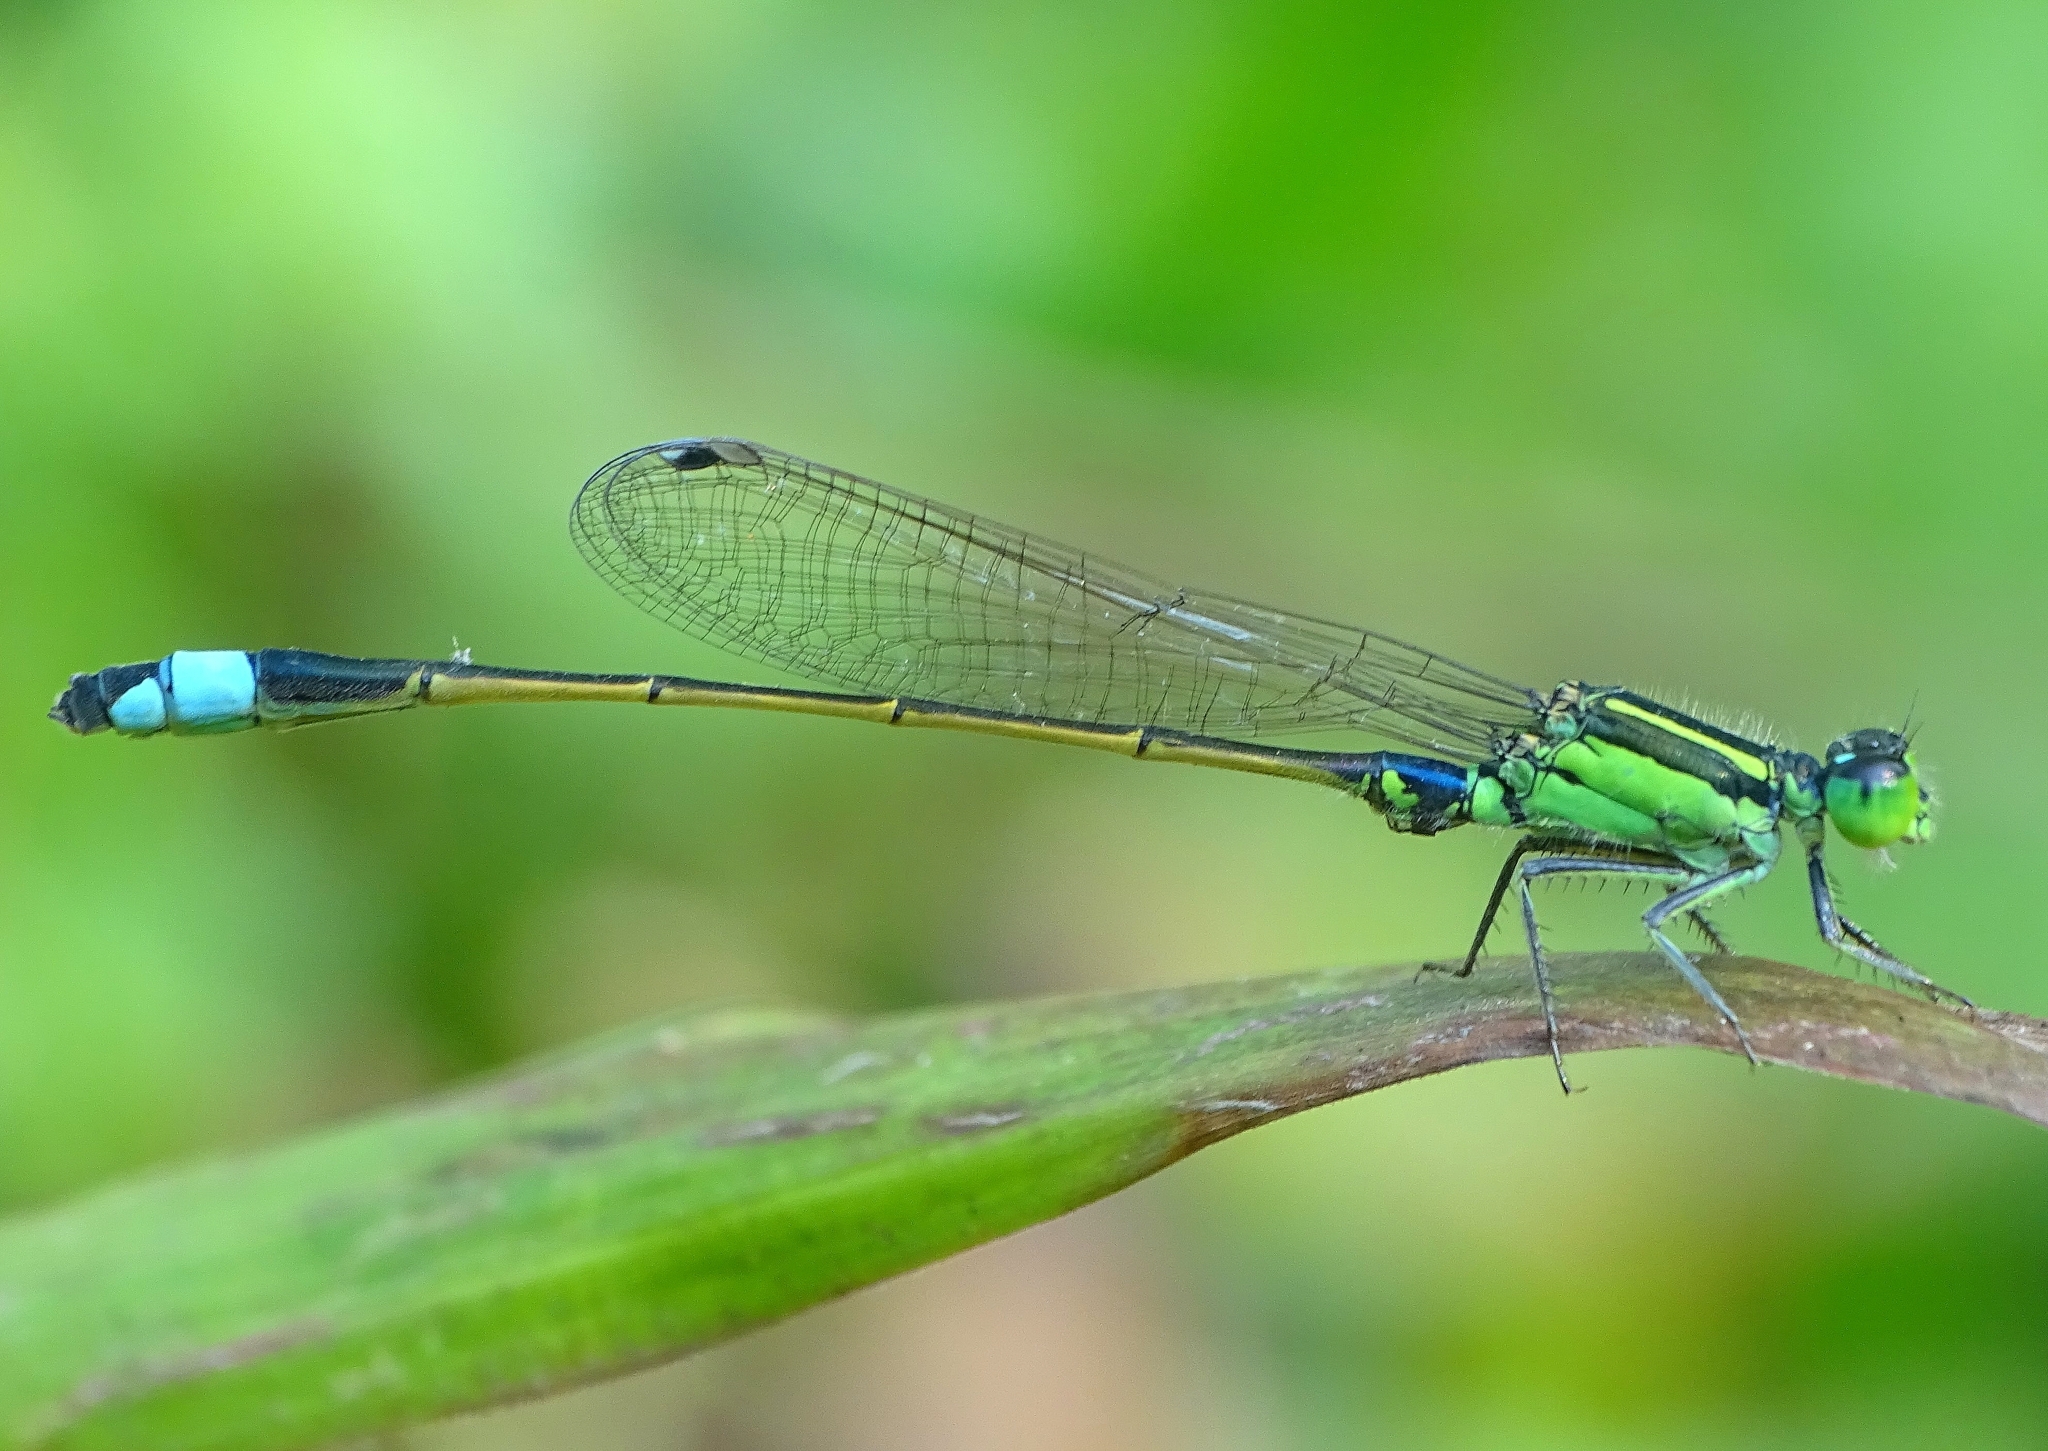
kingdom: Animalia
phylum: Arthropoda
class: Insecta
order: Odonata
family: Coenagrionidae
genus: Ischnura
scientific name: Ischnura senegalensis
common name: Tropical bluetail
